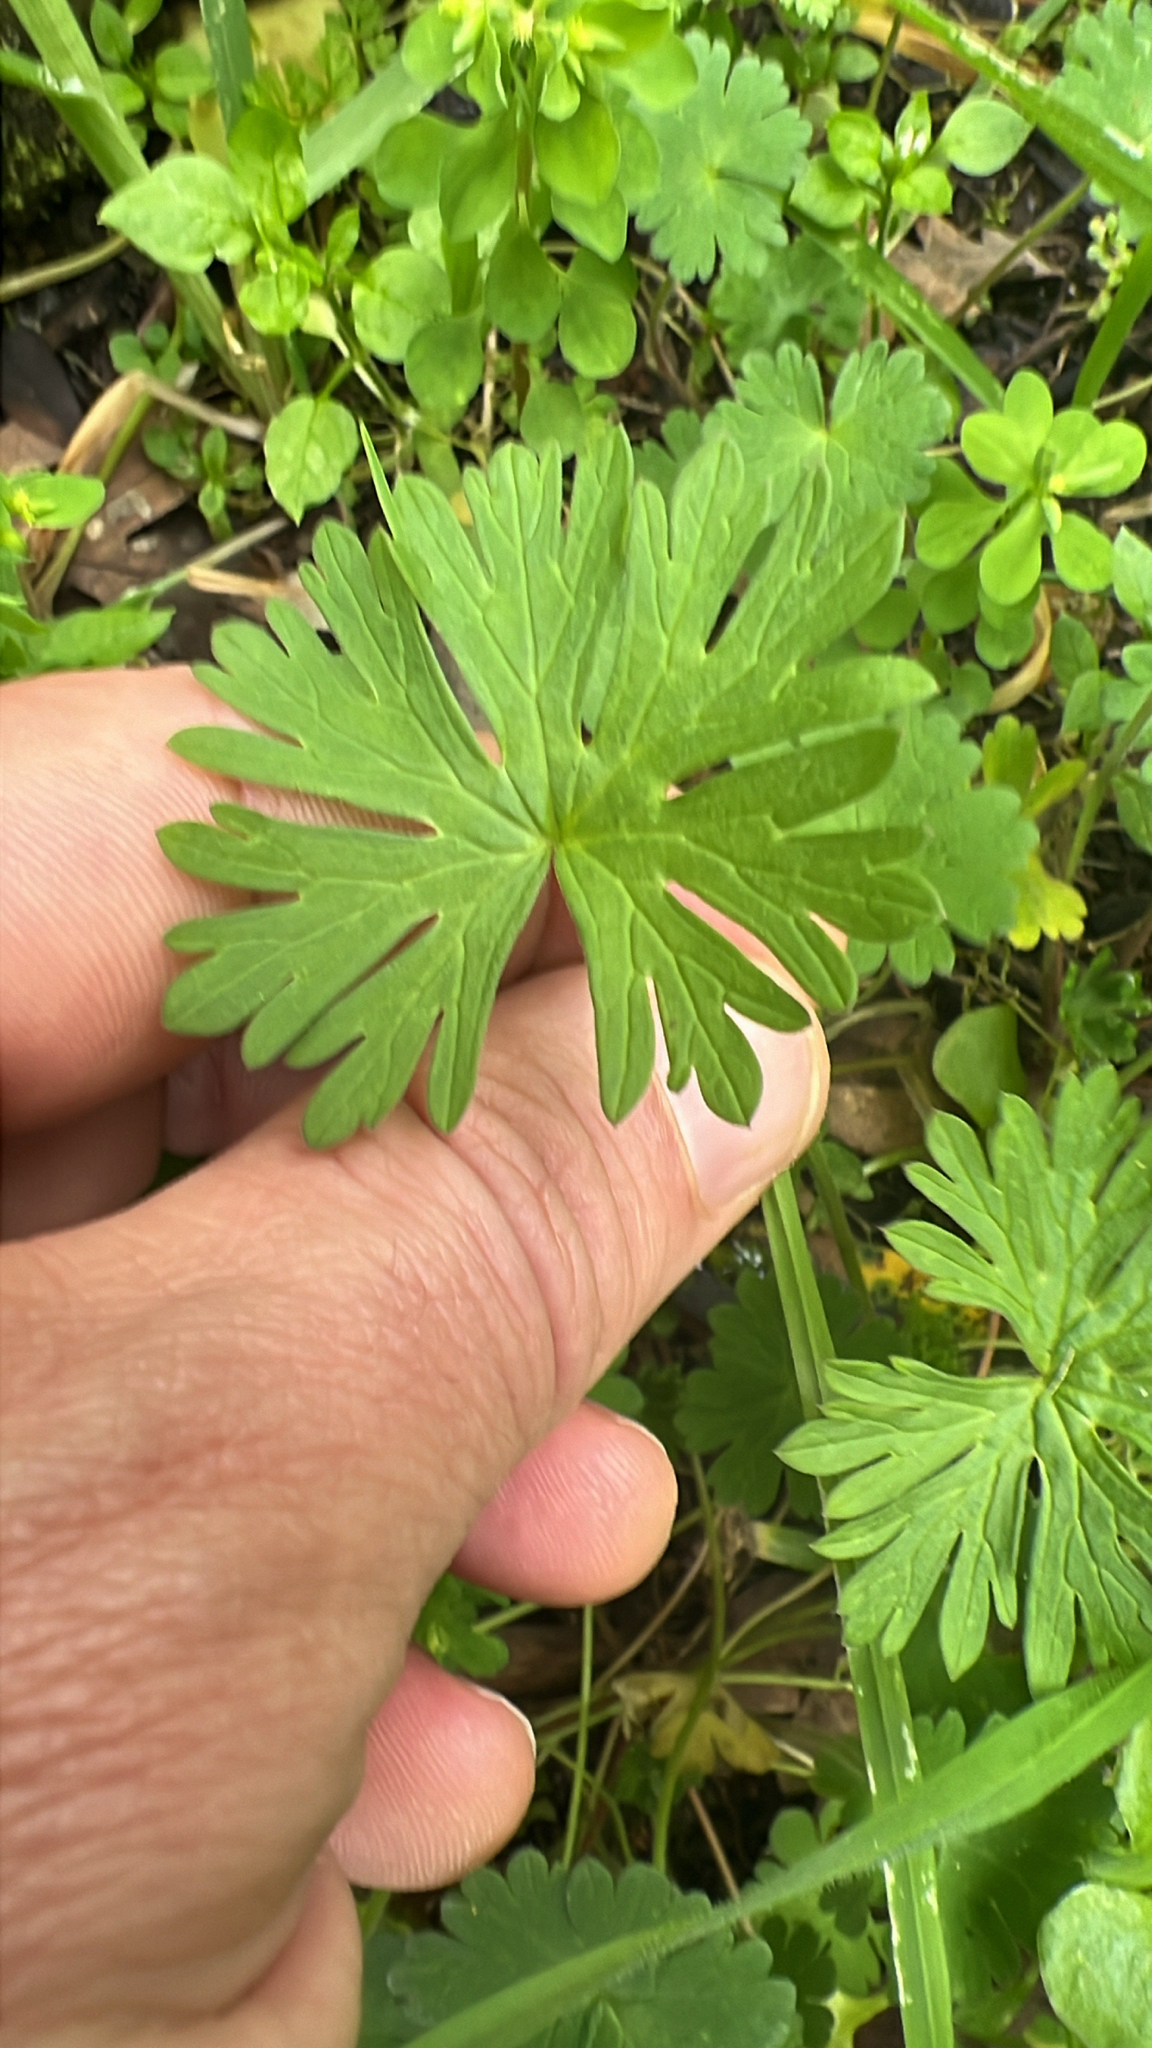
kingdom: Plantae
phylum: Tracheophyta
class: Magnoliopsida
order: Geraniales
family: Geraniaceae
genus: Geranium
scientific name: Geranium
